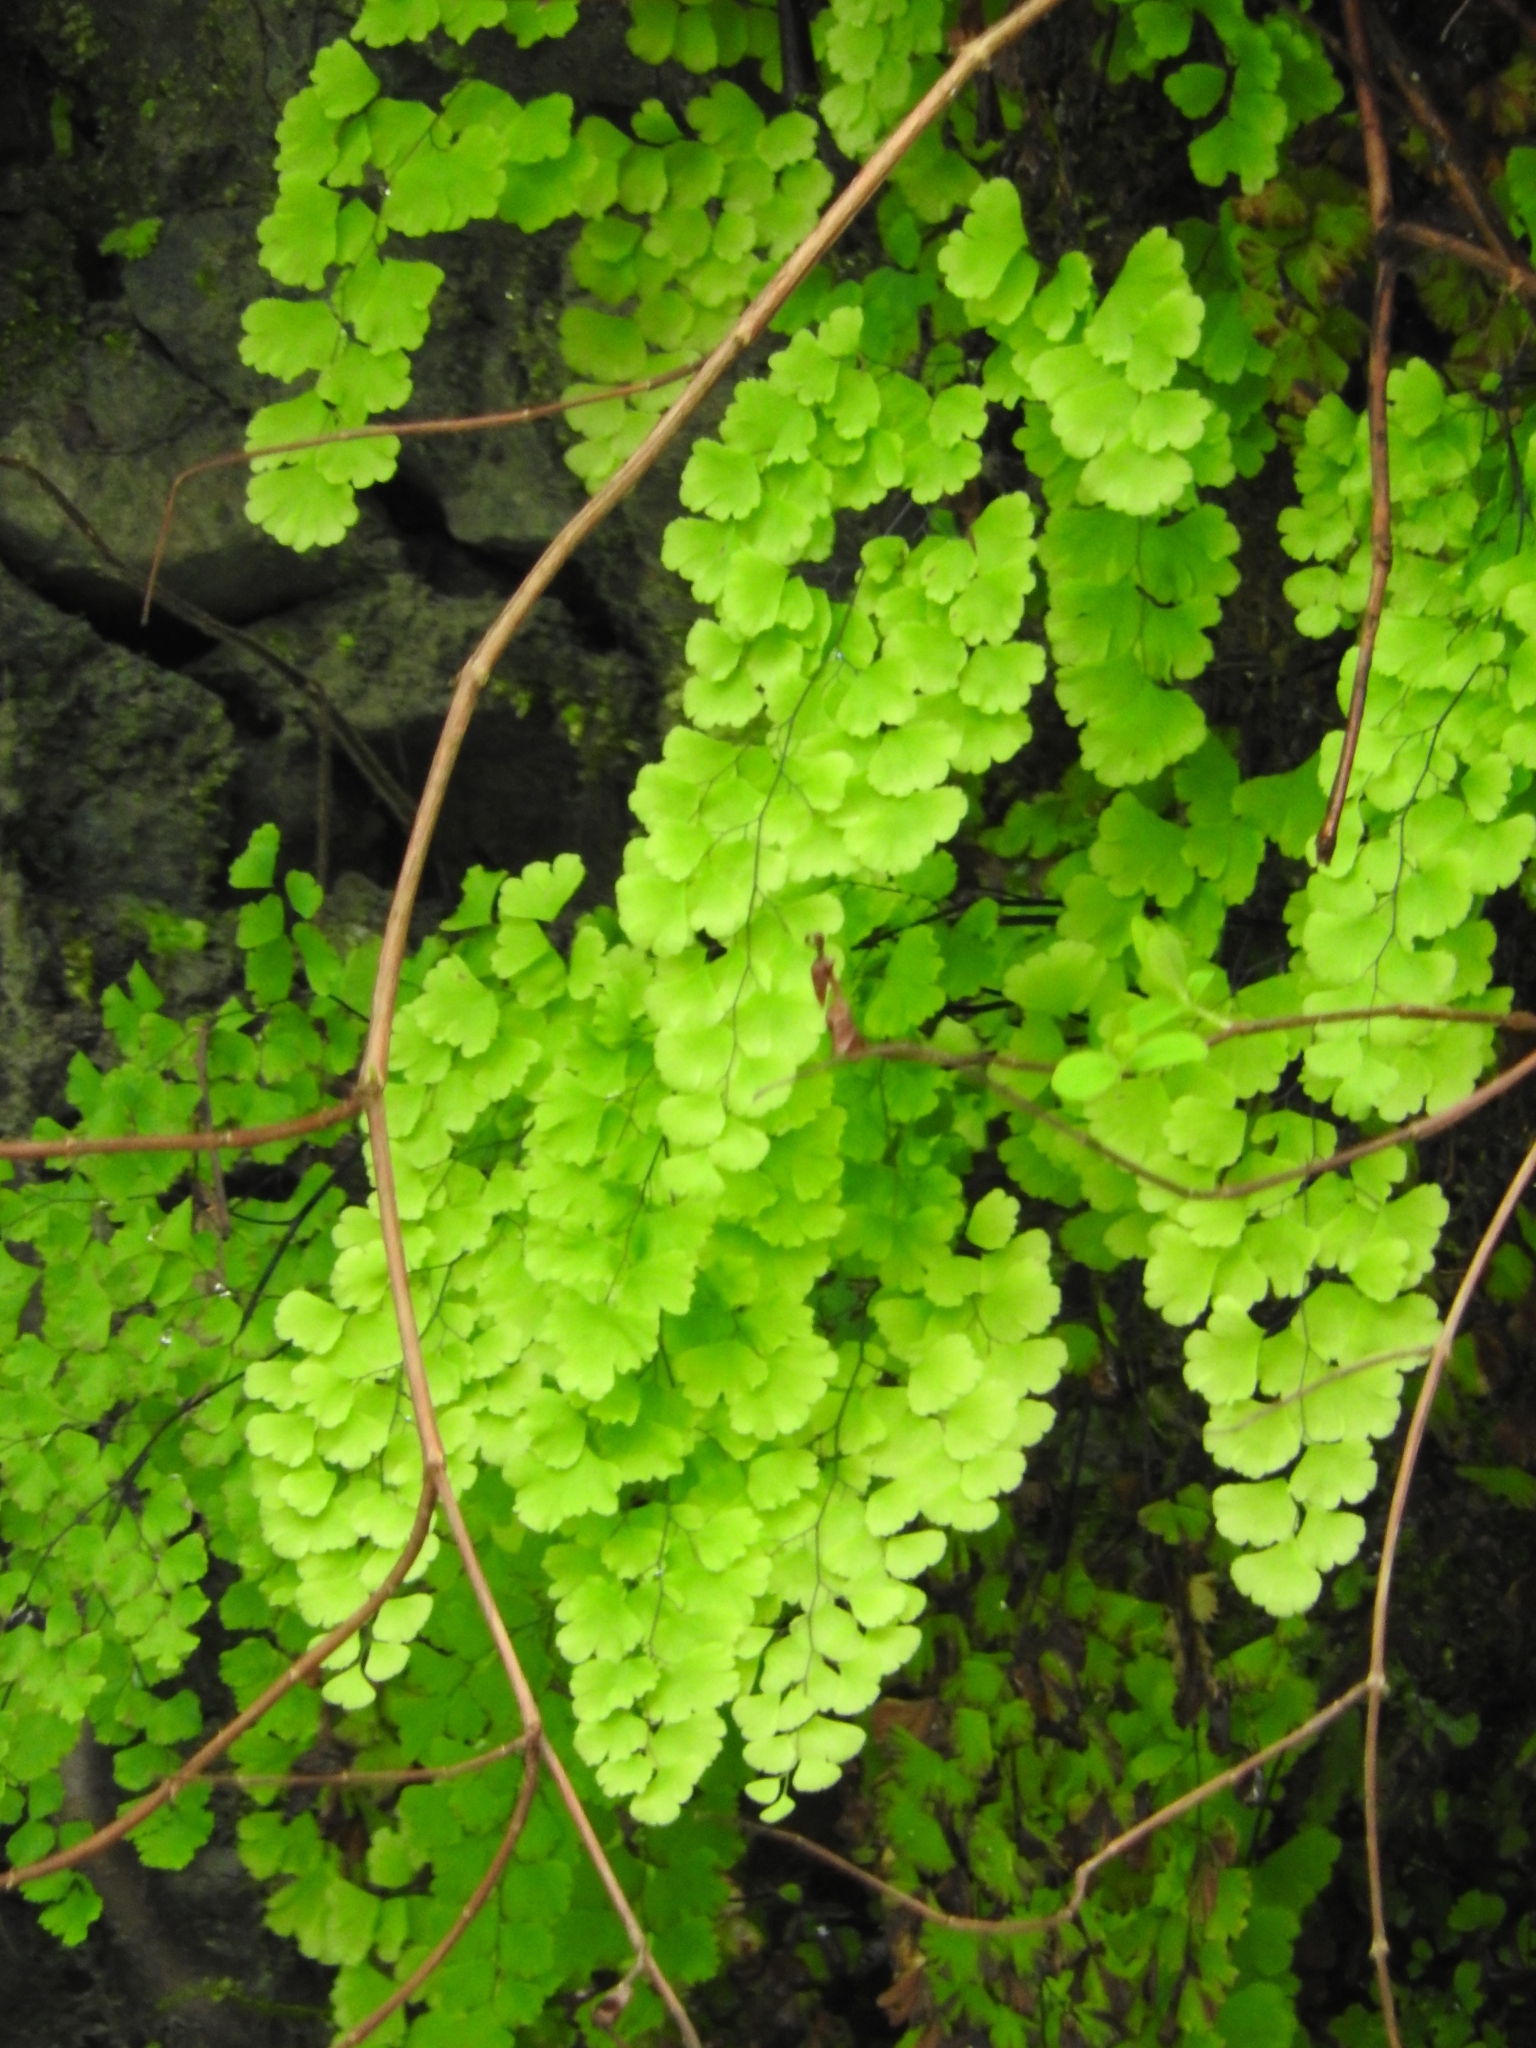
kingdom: Plantae
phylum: Tracheophyta
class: Polypodiopsida
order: Polypodiales
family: Pteridaceae
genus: Adiantum
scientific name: Adiantum capillus-veneris
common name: Maidenhair fern
